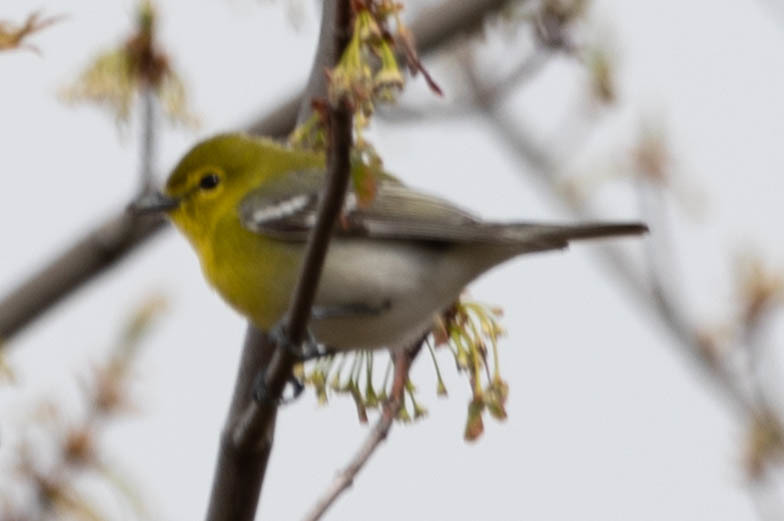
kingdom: Animalia
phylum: Chordata
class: Aves
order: Passeriformes
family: Vireonidae
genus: Vireo
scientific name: Vireo flavifrons
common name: Yellow-throated vireo
